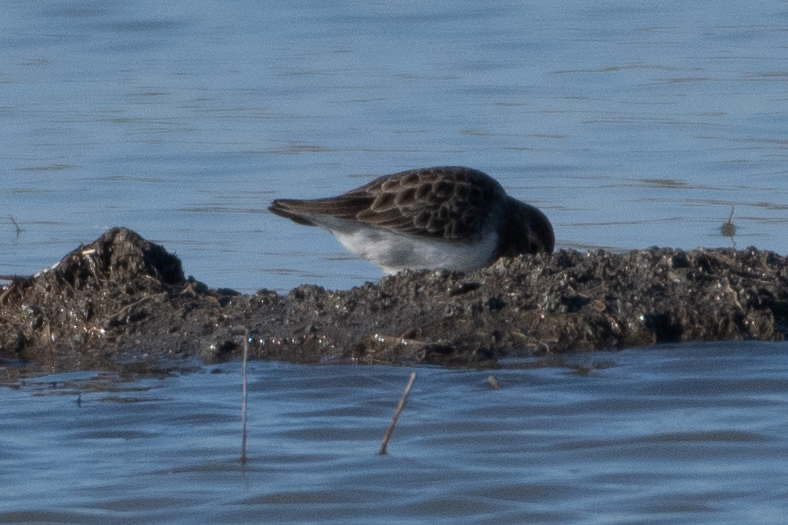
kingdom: Animalia
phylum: Chordata
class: Aves
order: Charadriiformes
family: Scolopacidae
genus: Calidris
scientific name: Calidris minutilla
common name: Least sandpiper
